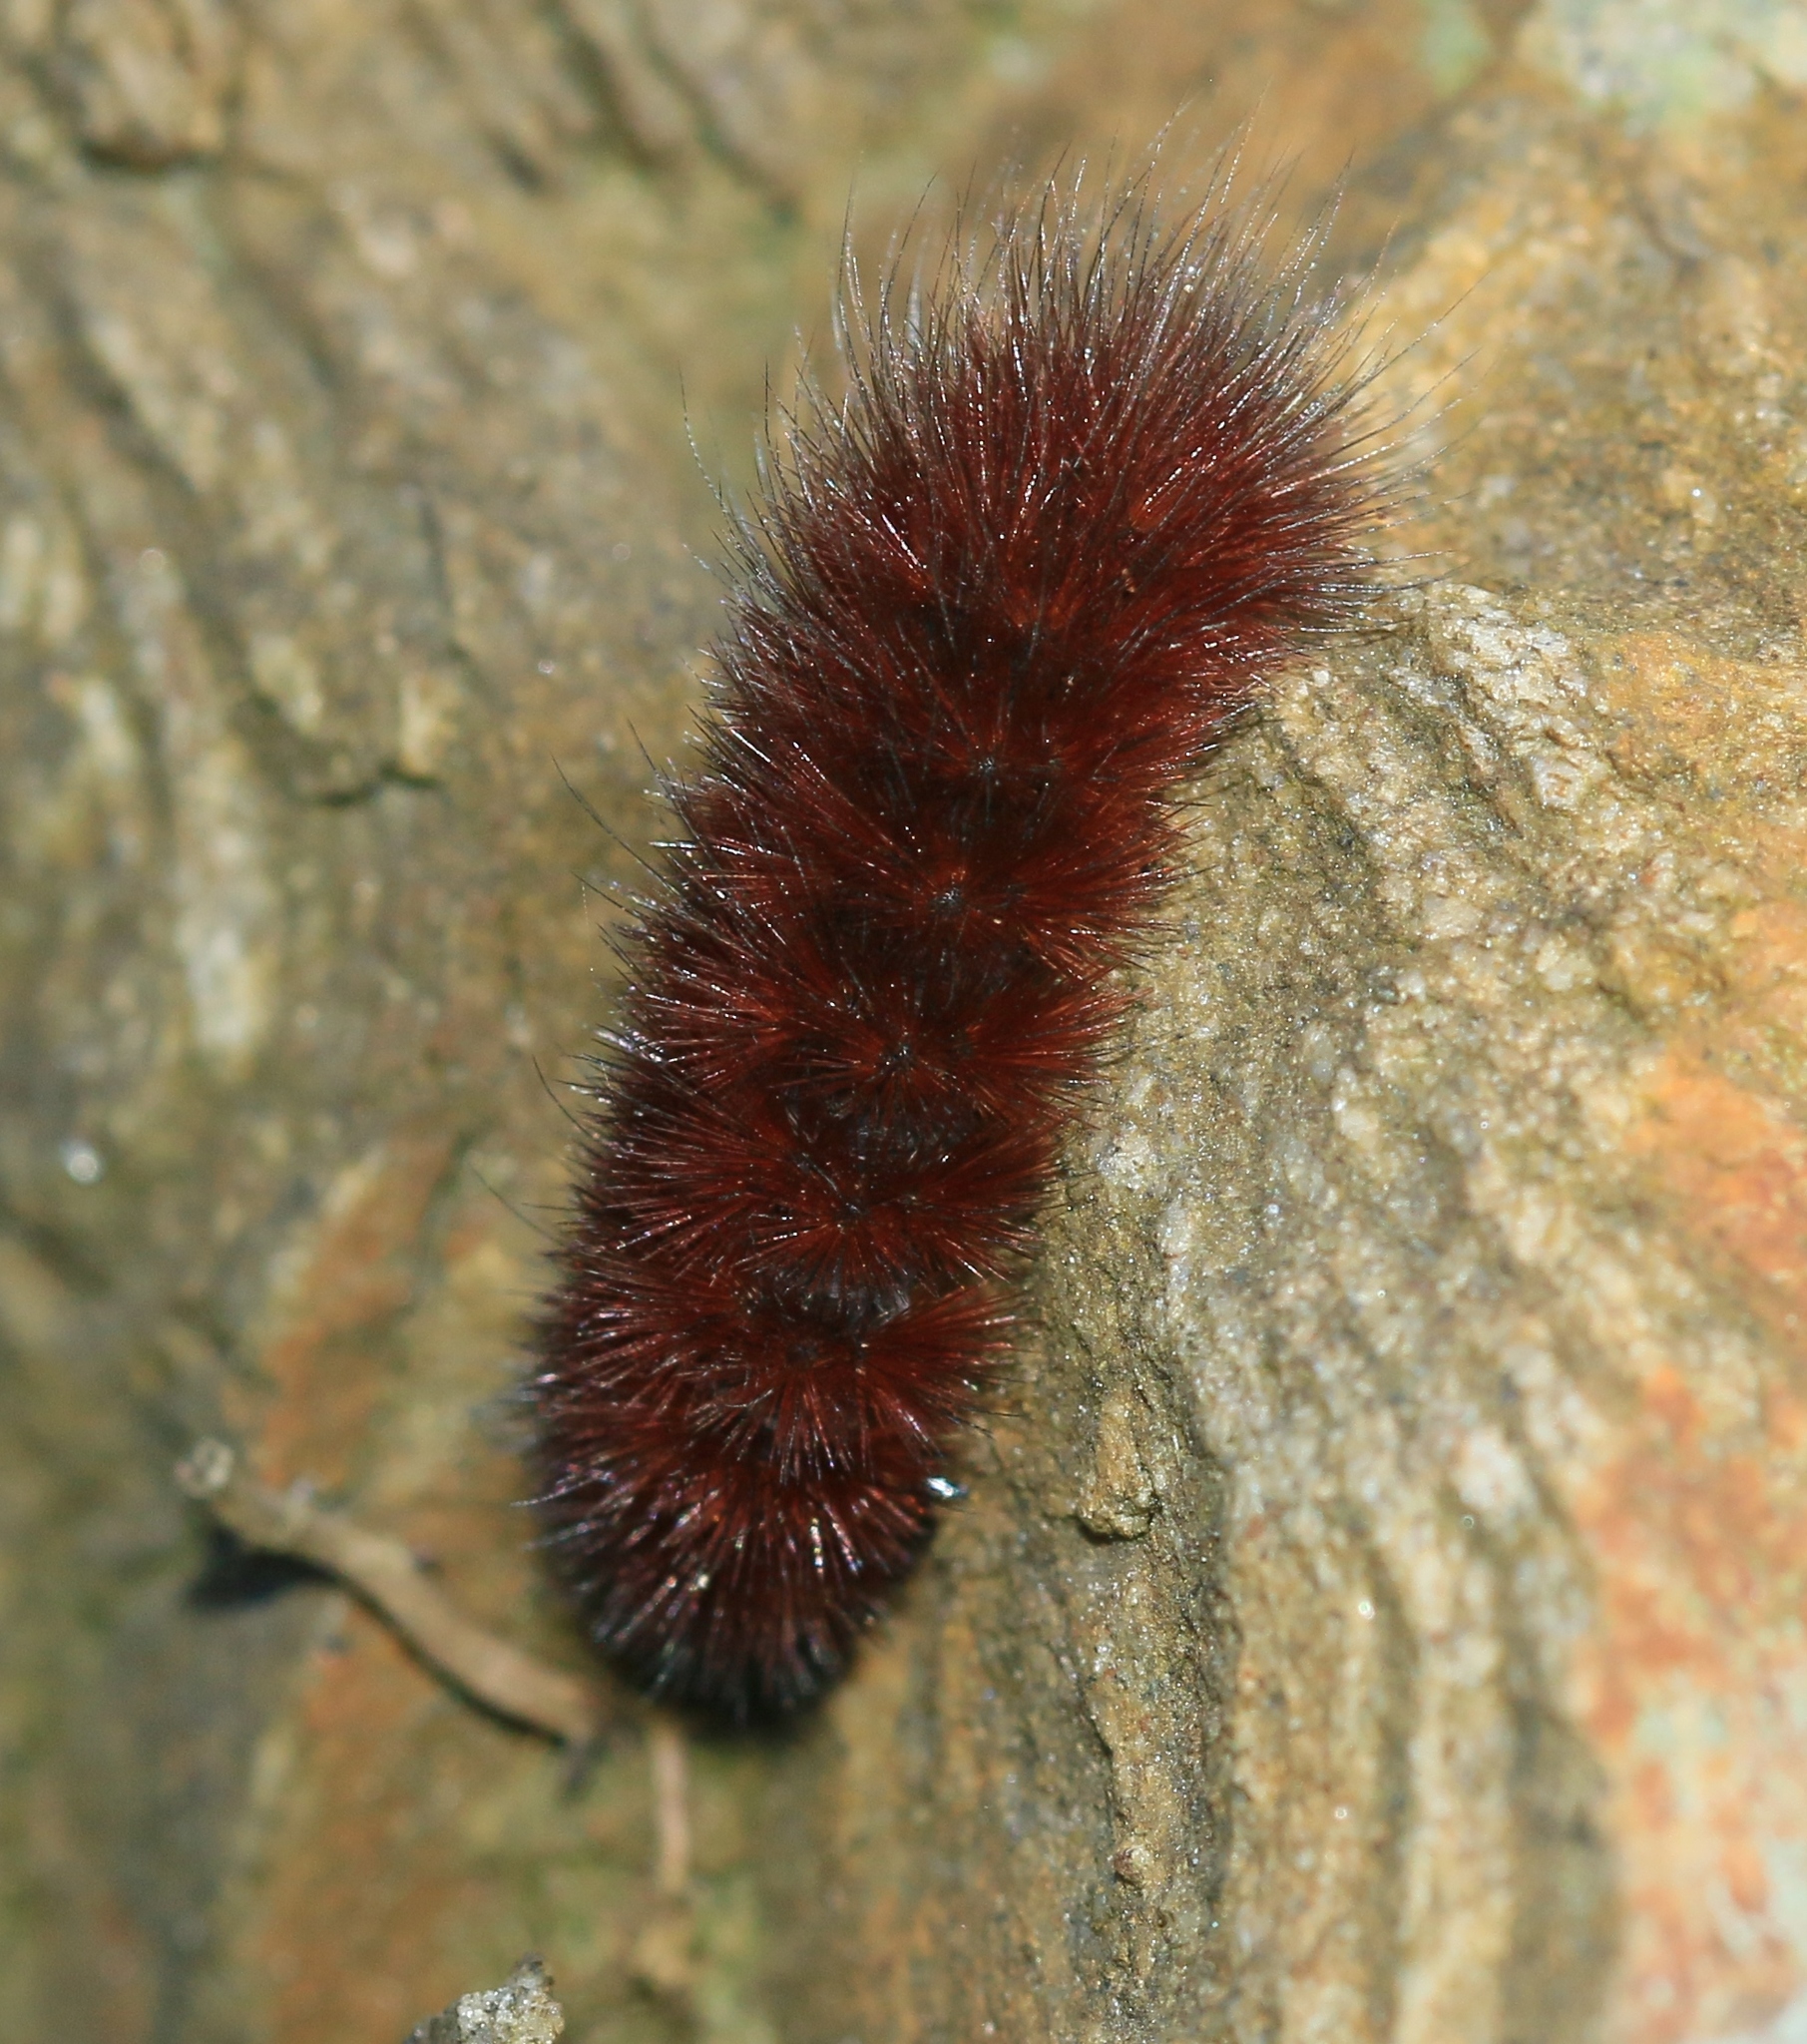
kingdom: Animalia
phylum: Arthropoda
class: Insecta
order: Lepidoptera
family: Erebidae
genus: Phragmatobia
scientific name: Phragmatobia fuliginosa
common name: Ruby tiger
